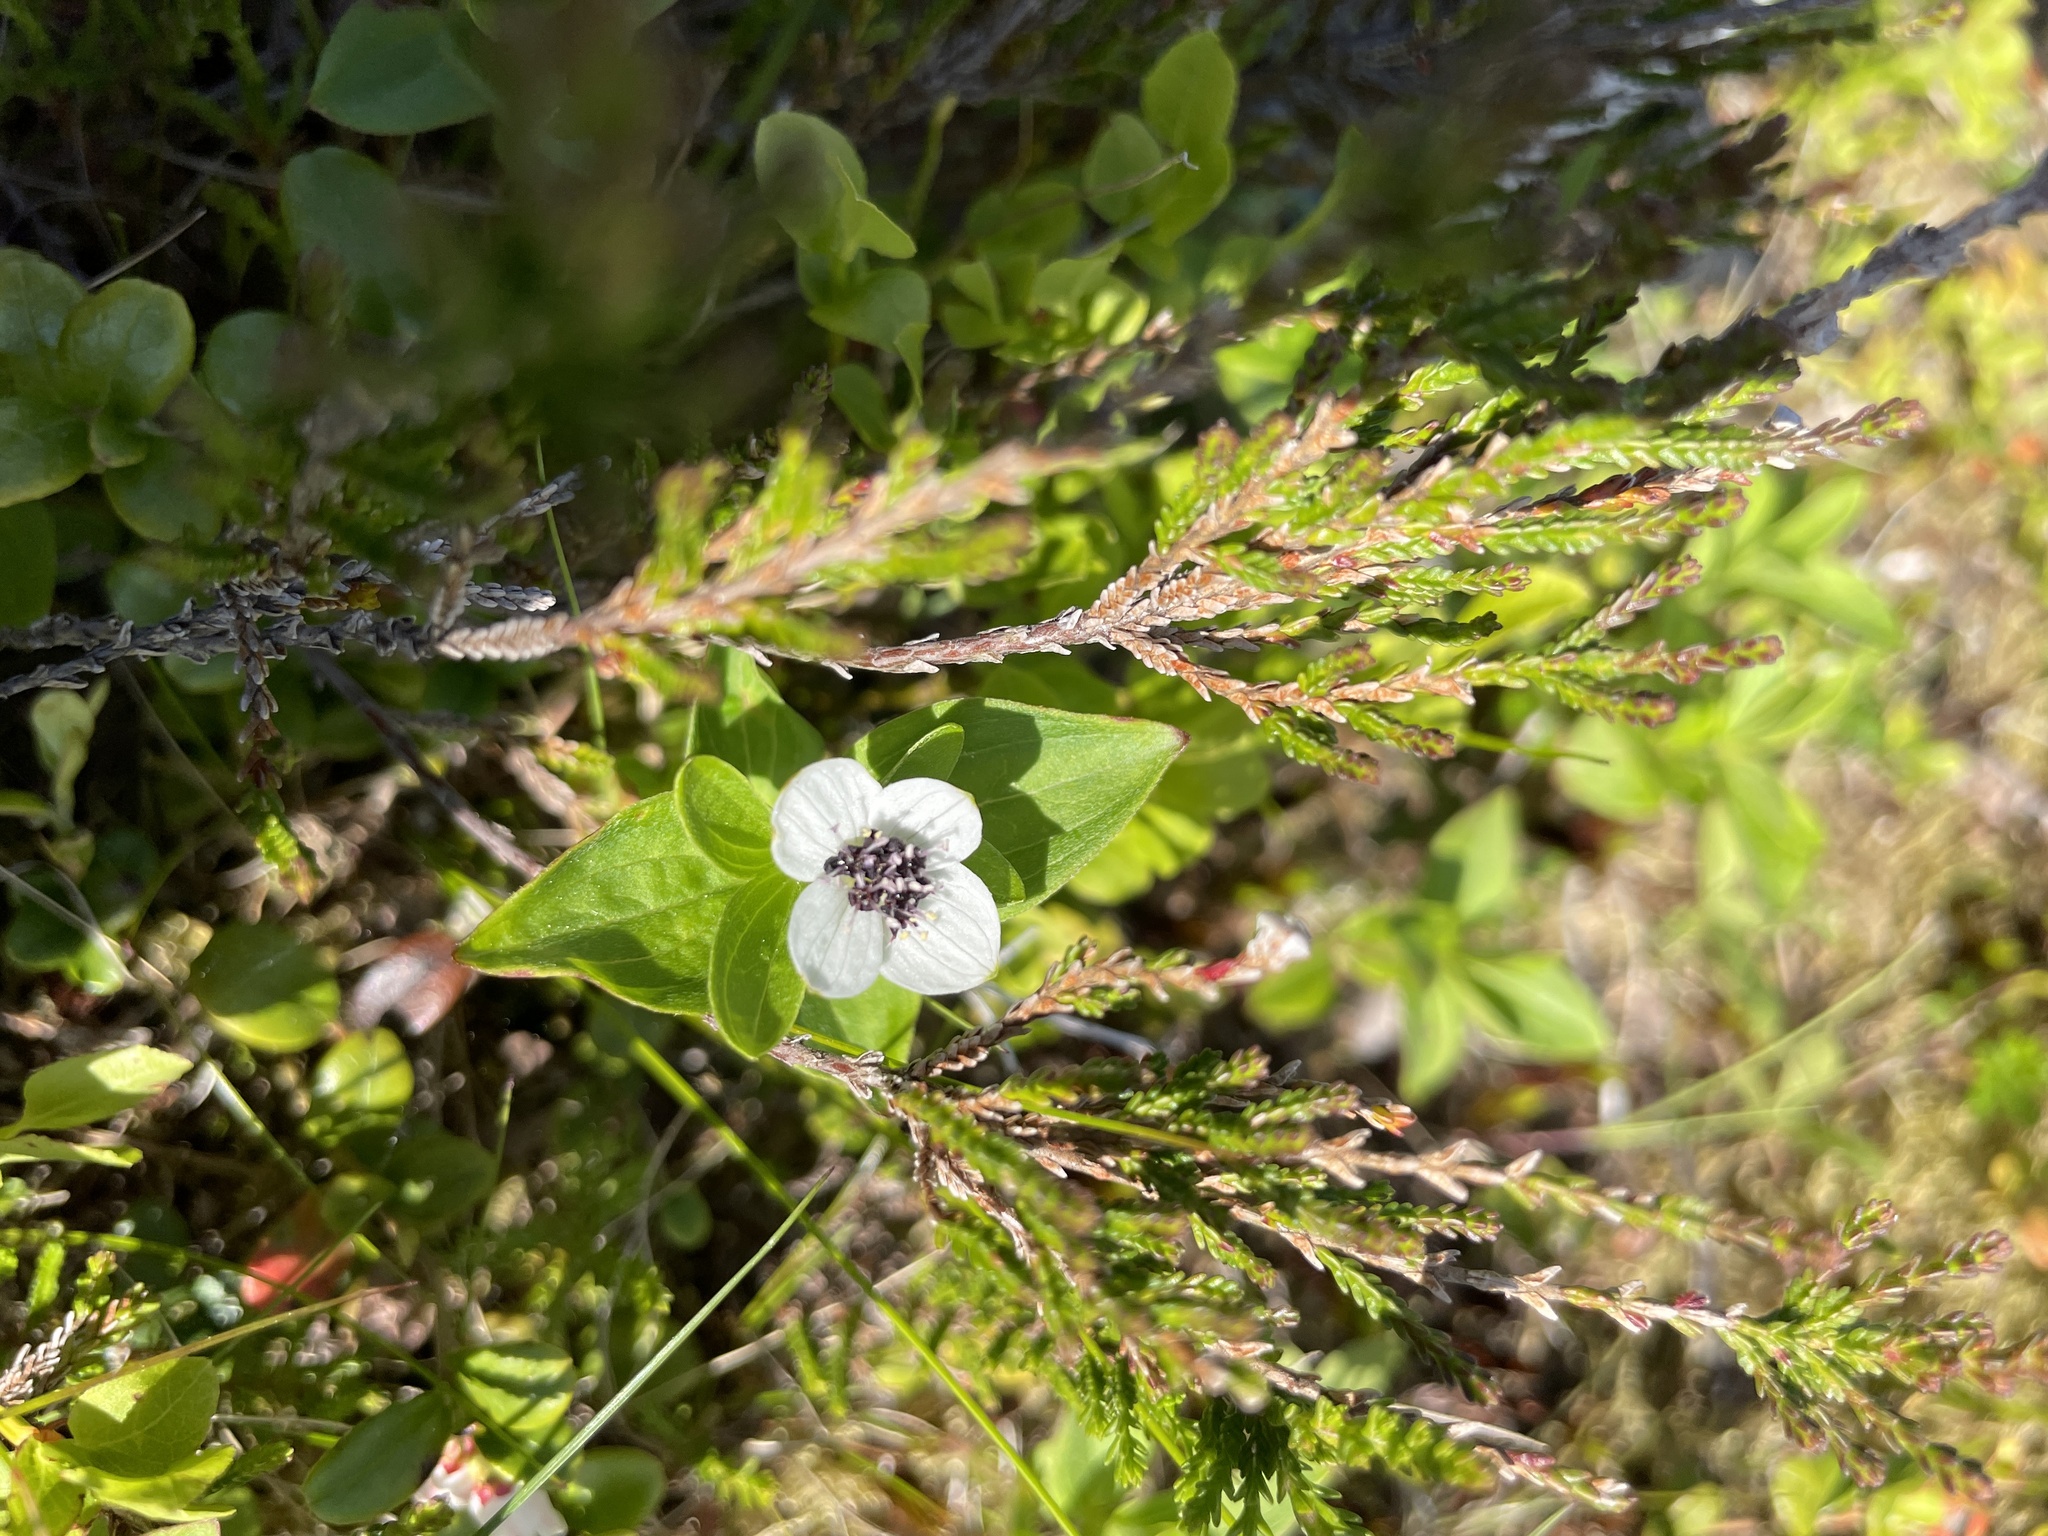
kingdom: Plantae
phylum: Tracheophyta
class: Magnoliopsida
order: Cornales
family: Cornaceae
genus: Cornus
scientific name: Cornus suecica
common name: Dwarf cornel
